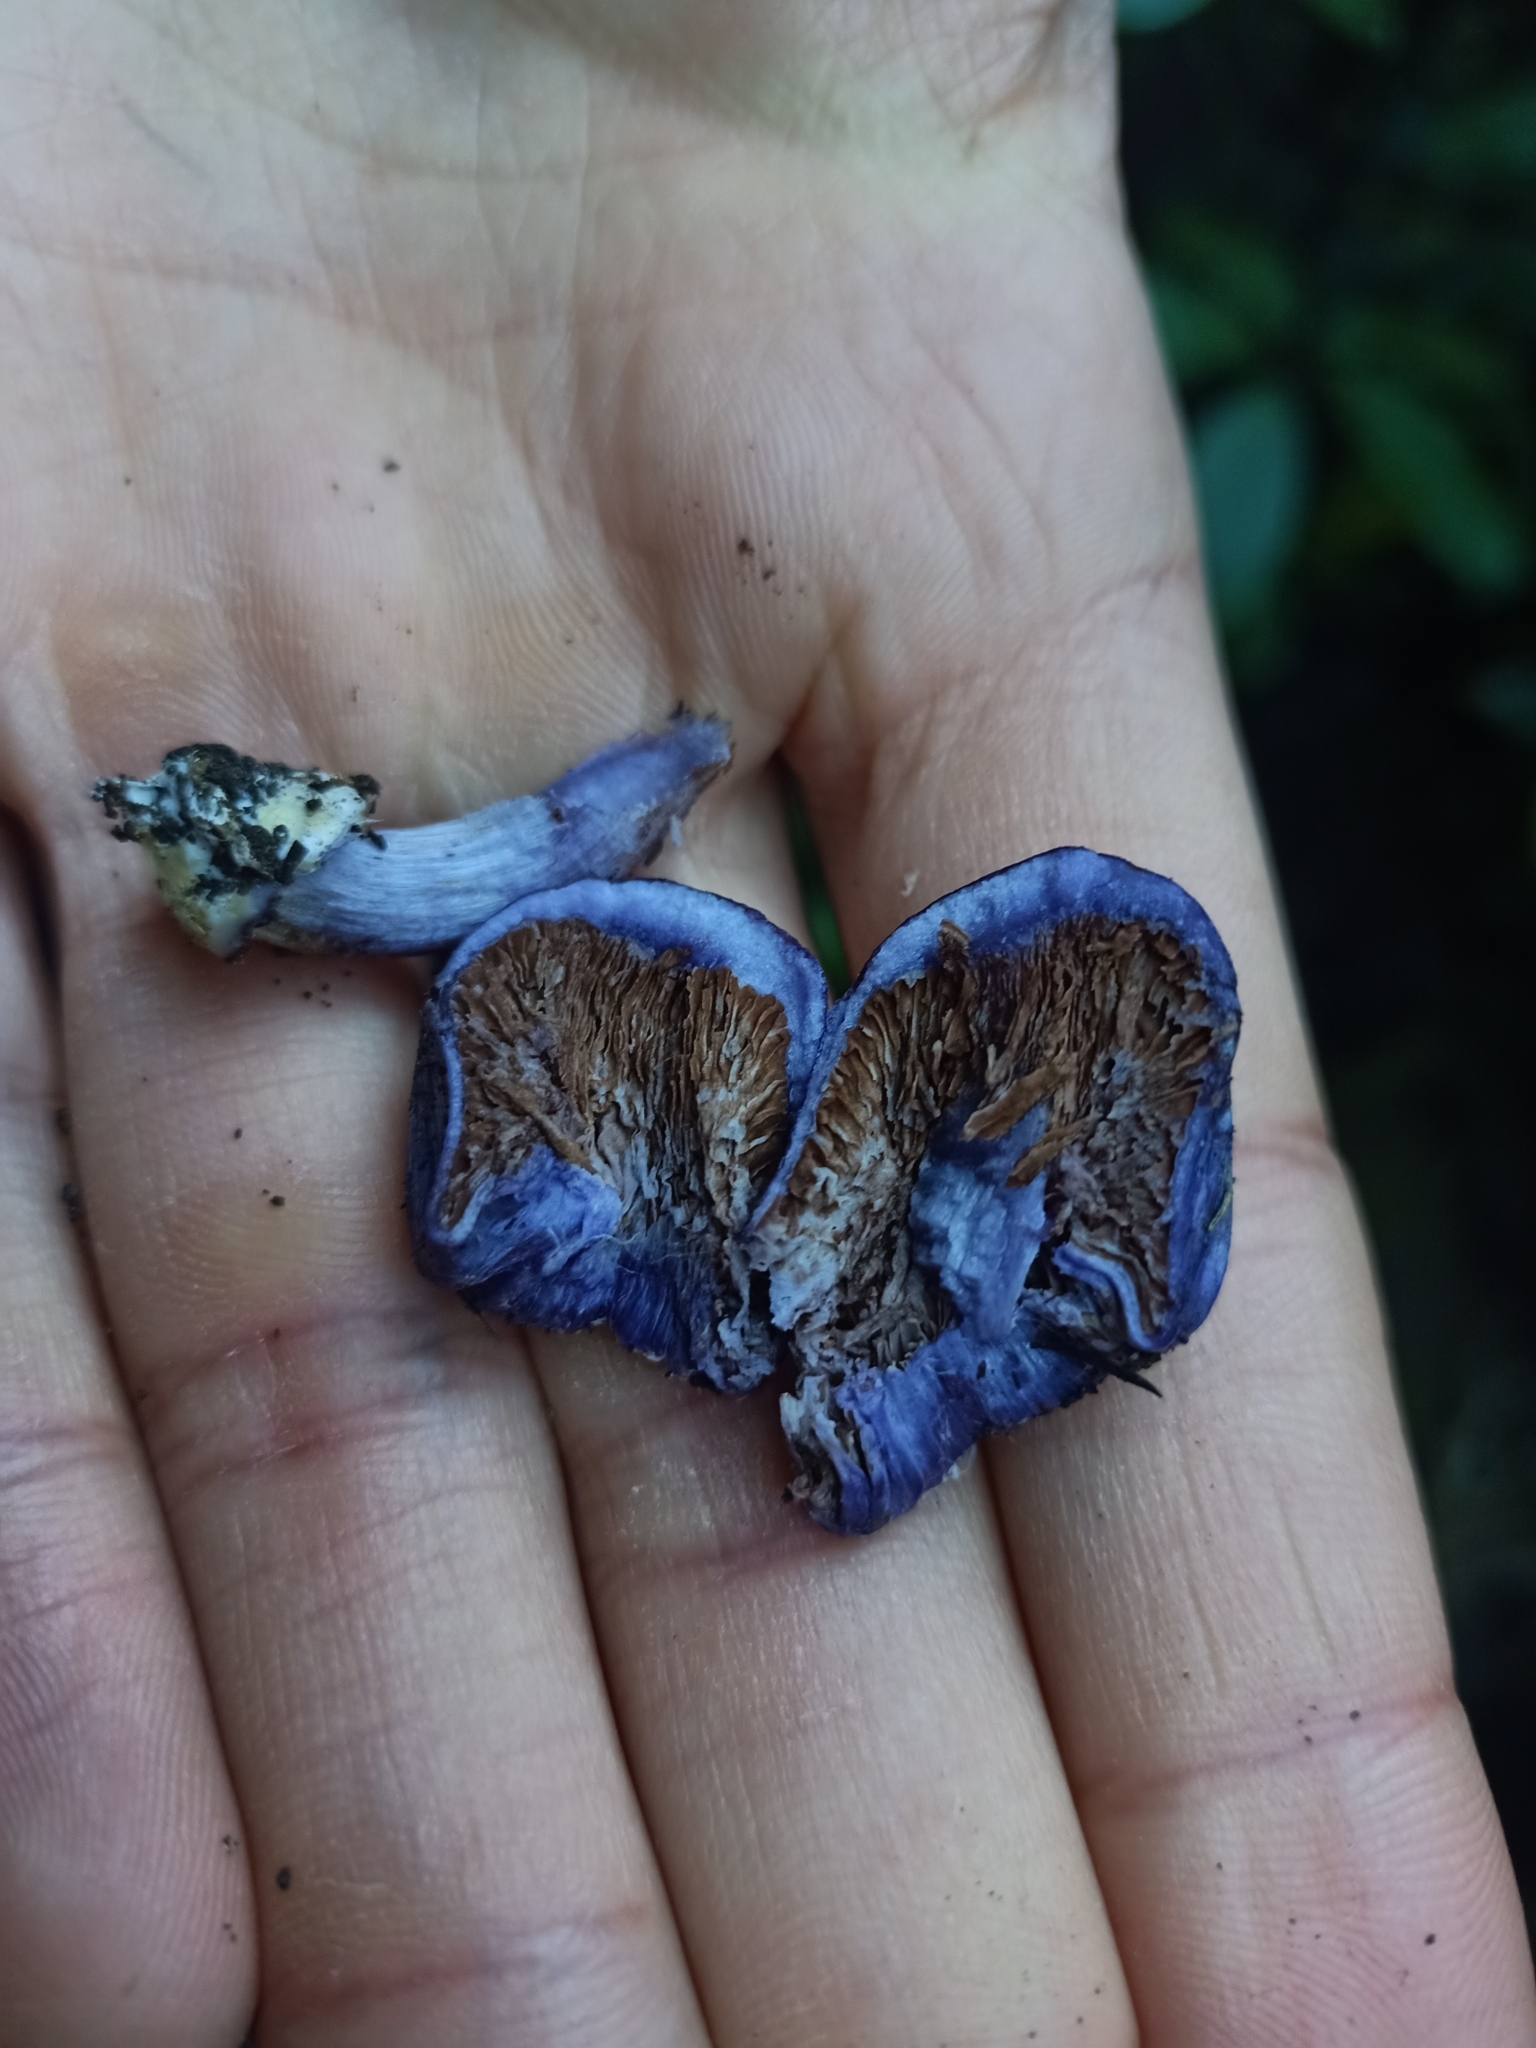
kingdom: Fungi
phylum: Basidiomycota
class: Agaricomycetes
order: Agaricales
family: Cortinariaceae
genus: Cortinarius
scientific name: Cortinarius coneae
